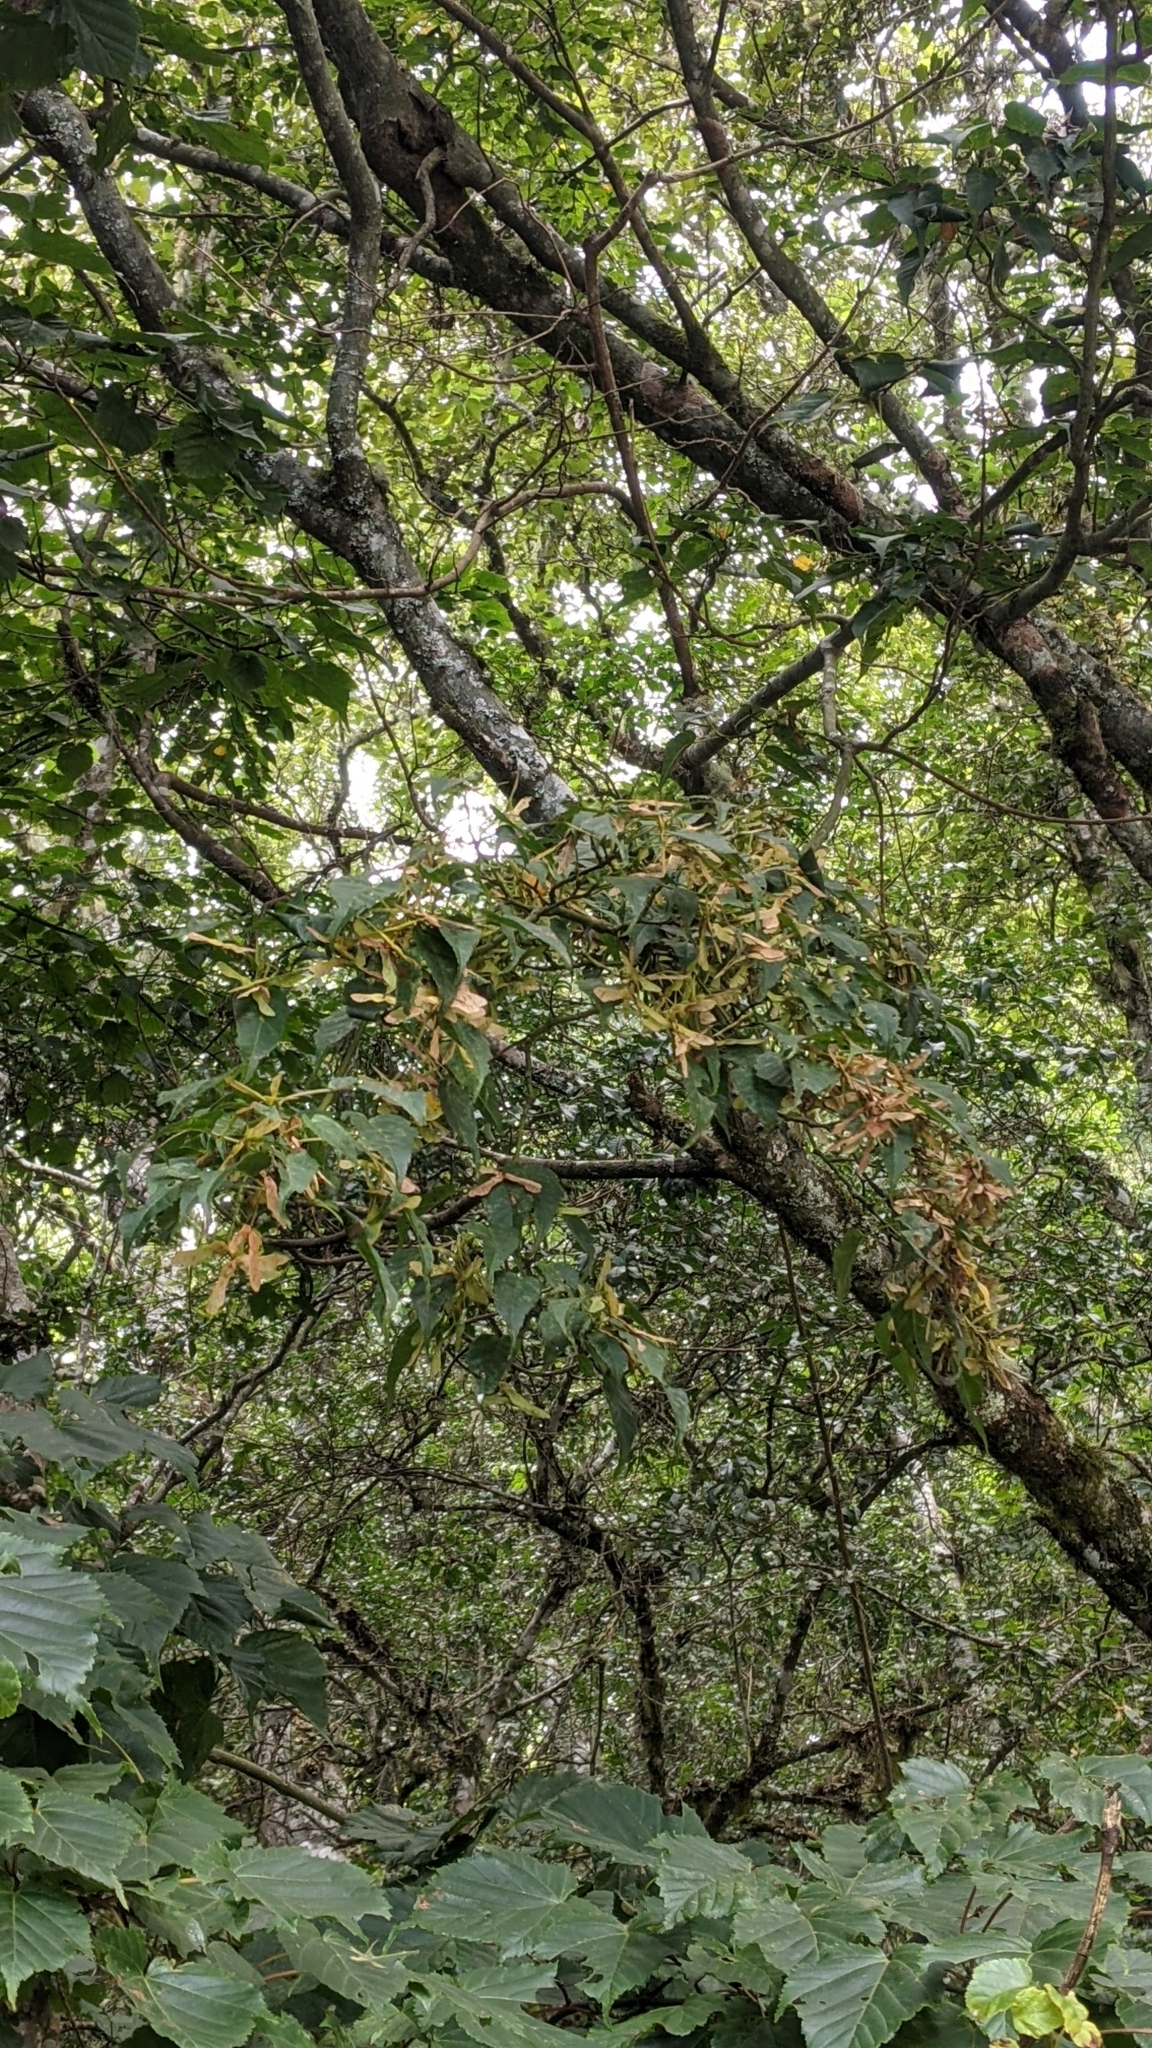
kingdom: Plantae
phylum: Tracheophyta
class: Magnoliopsida
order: Sapindales
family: Sapindaceae
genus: Acer
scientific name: Acer caudatifolium
